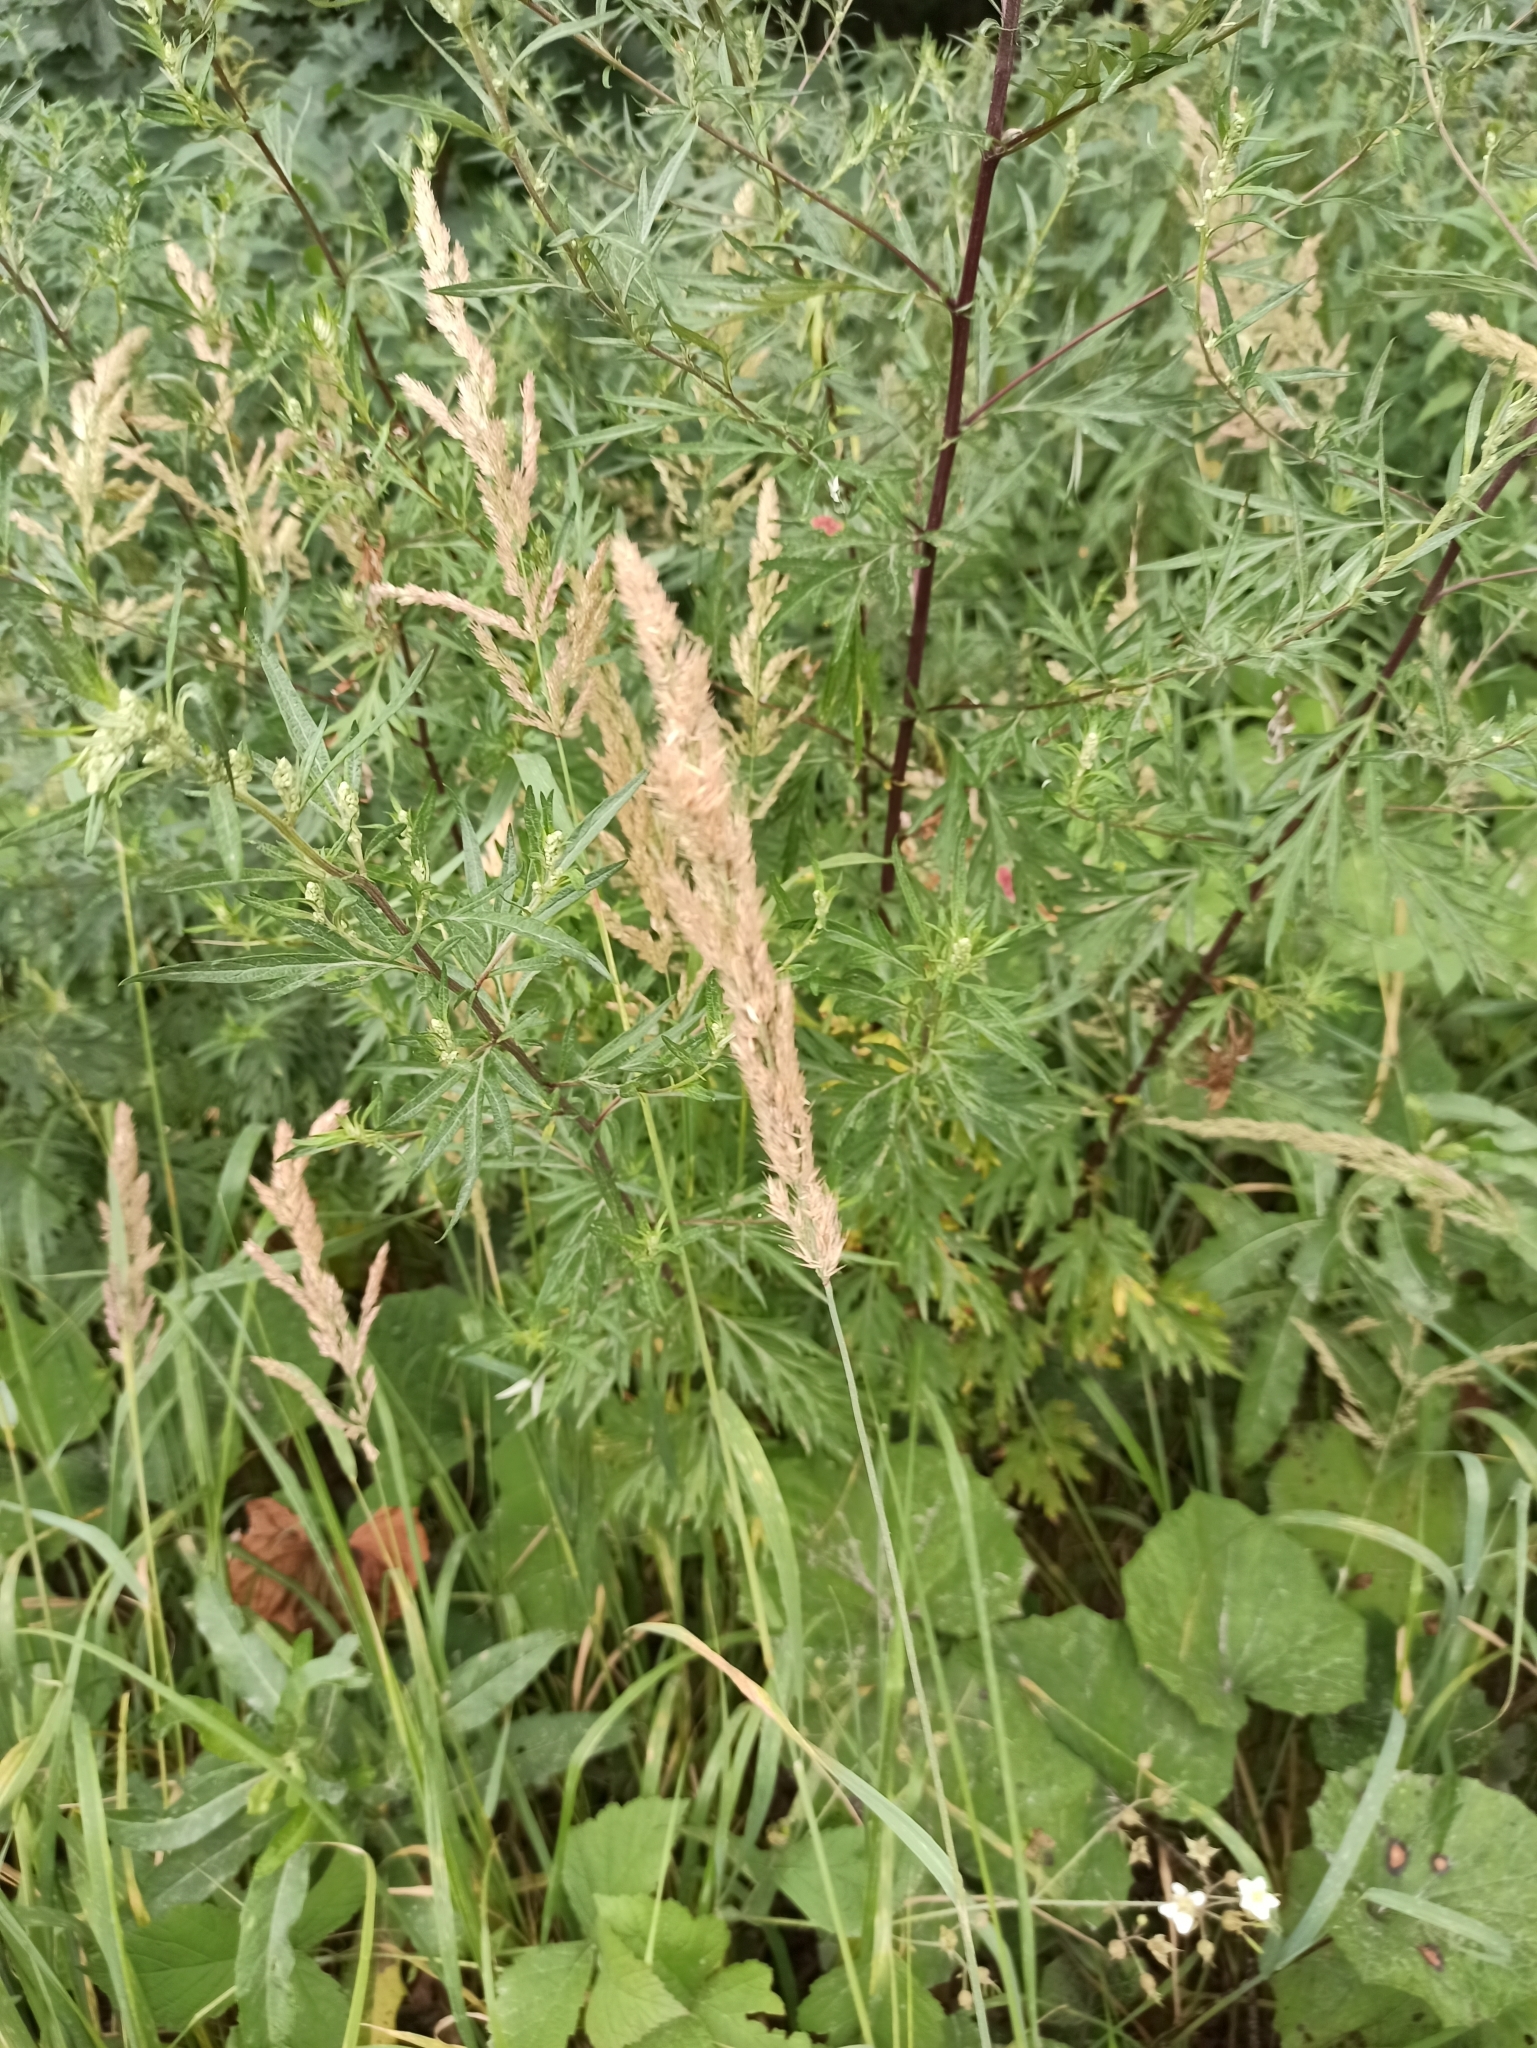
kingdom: Plantae
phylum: Tracheophyta
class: Liliopsida
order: Poales
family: Poaceae
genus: Calamagrostis
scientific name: Calamagrostis epigejos
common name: Wood small-reed
